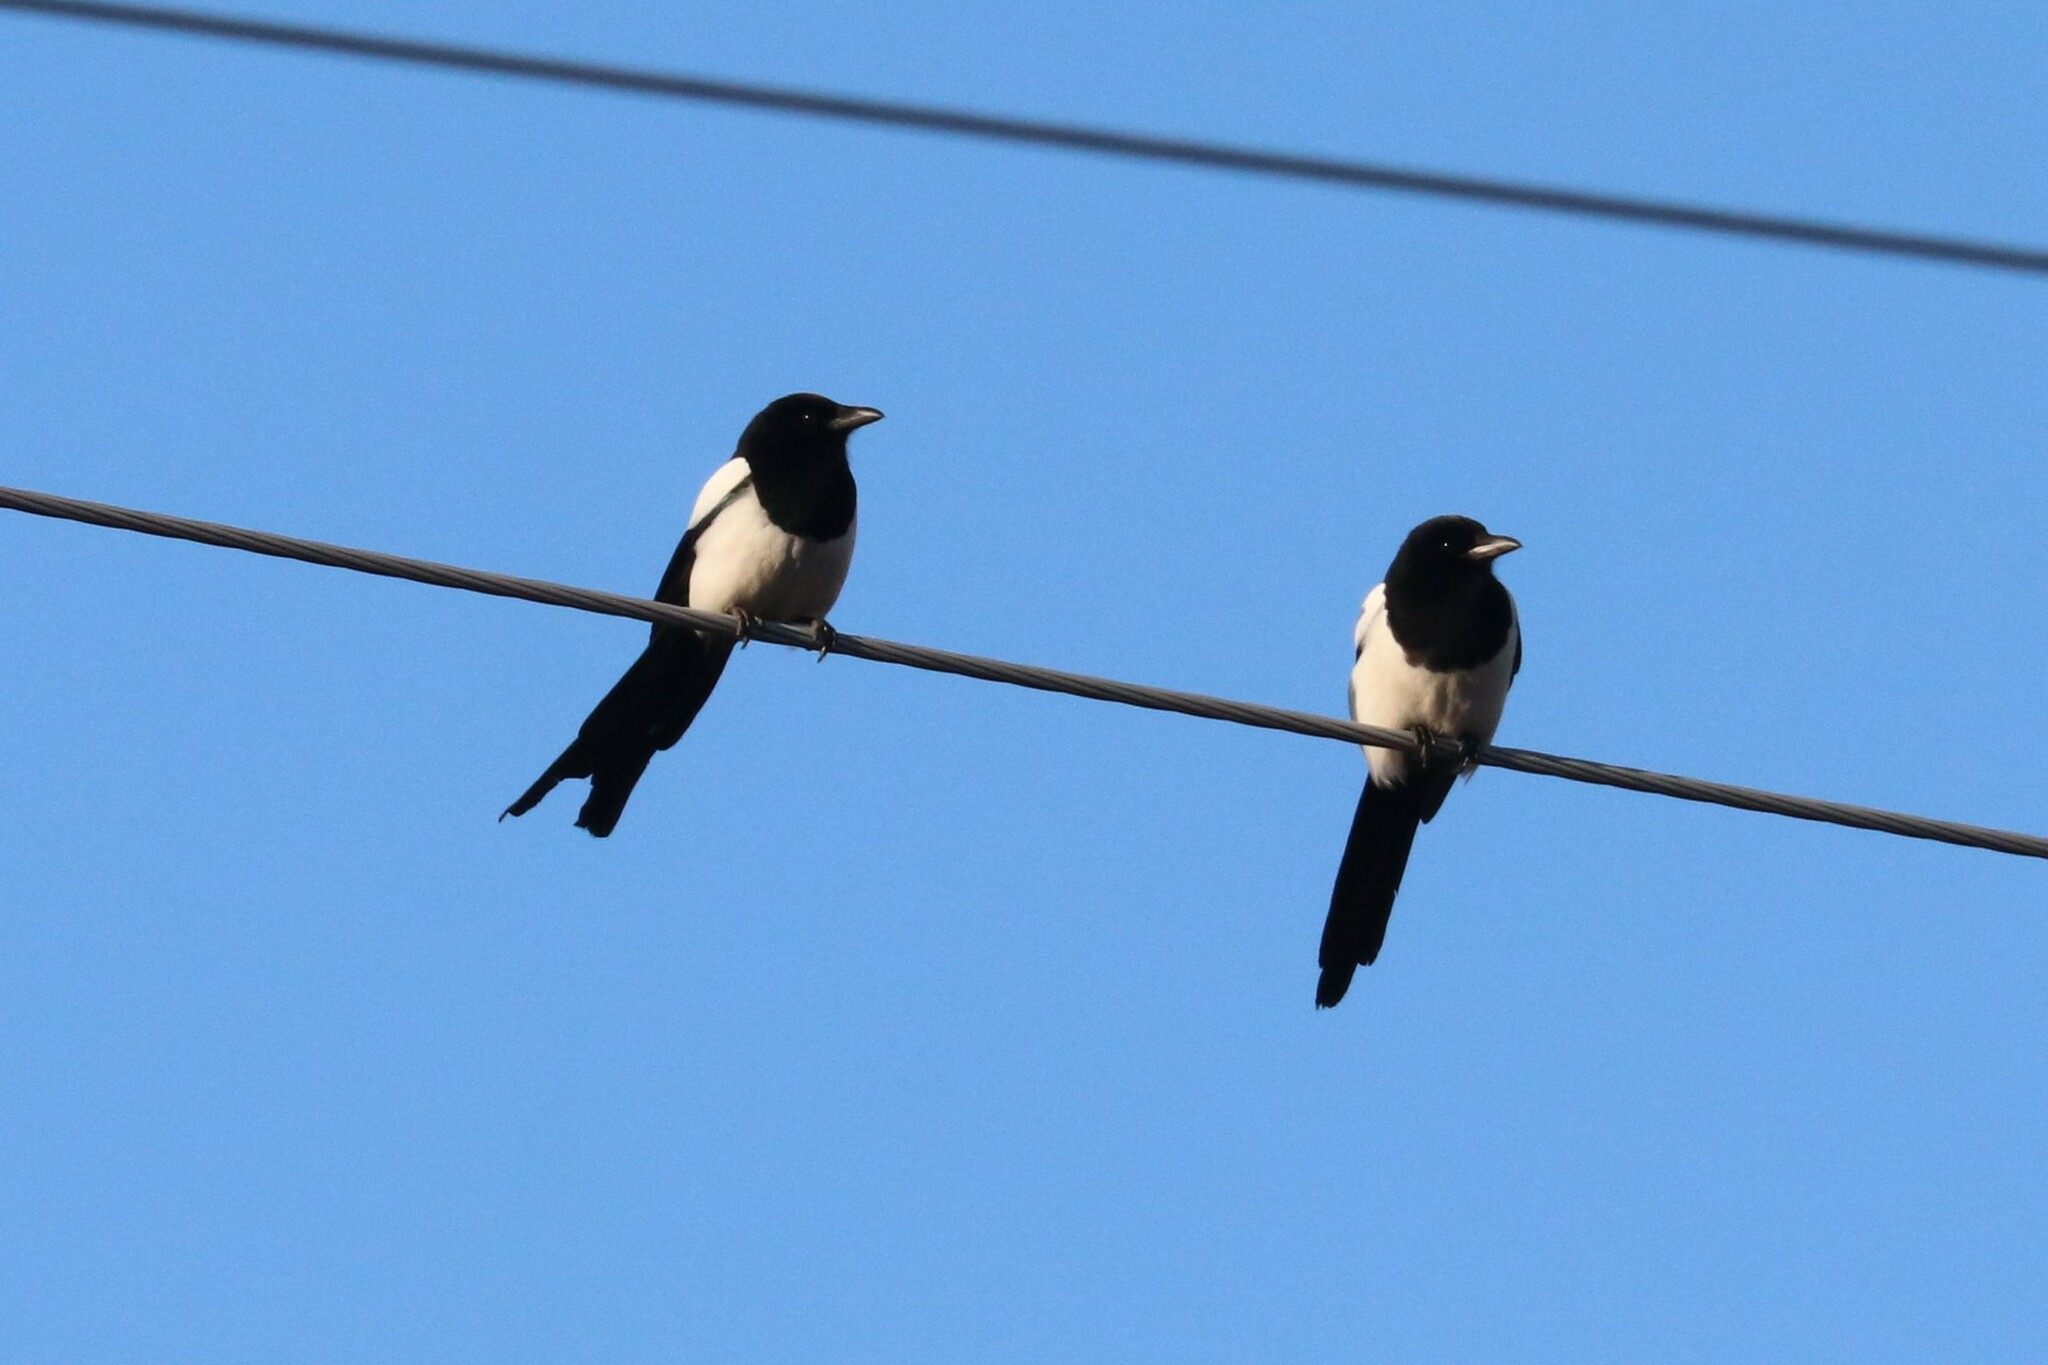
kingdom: Animalia
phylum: Chordata
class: Aves
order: Passeriformes
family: Corvidae
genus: Pica
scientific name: Pica pica
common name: Eurasian magpie
